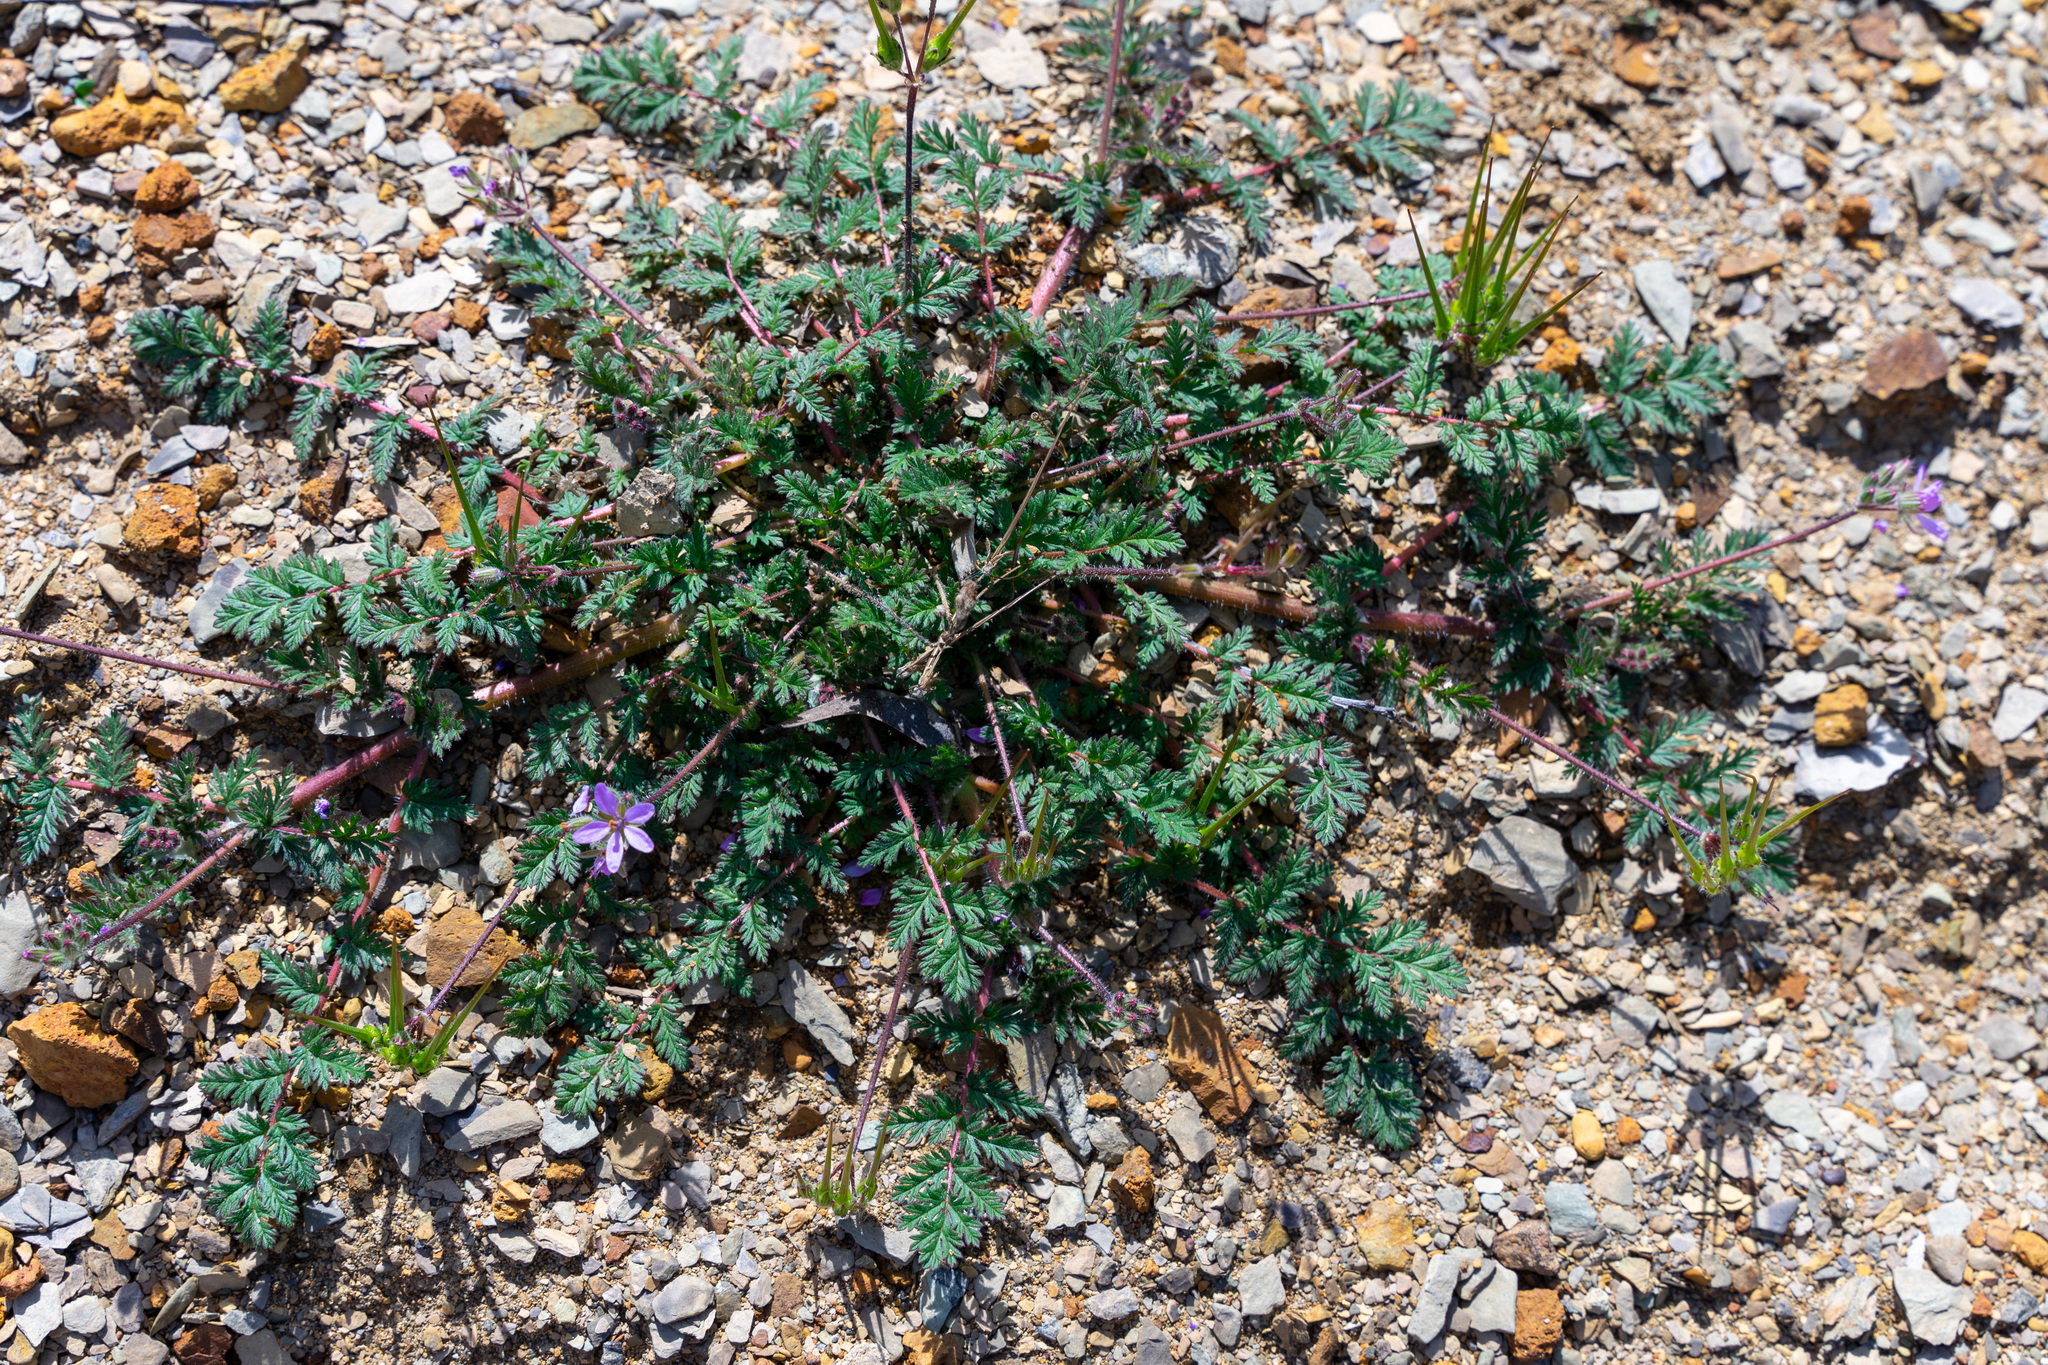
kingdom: Plantae
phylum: Tracheophyta
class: Magnoliopsida
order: Geraniales
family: Geraniaceae
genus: Erodium
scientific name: Erodium cicutarium
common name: Common stork's-bill
